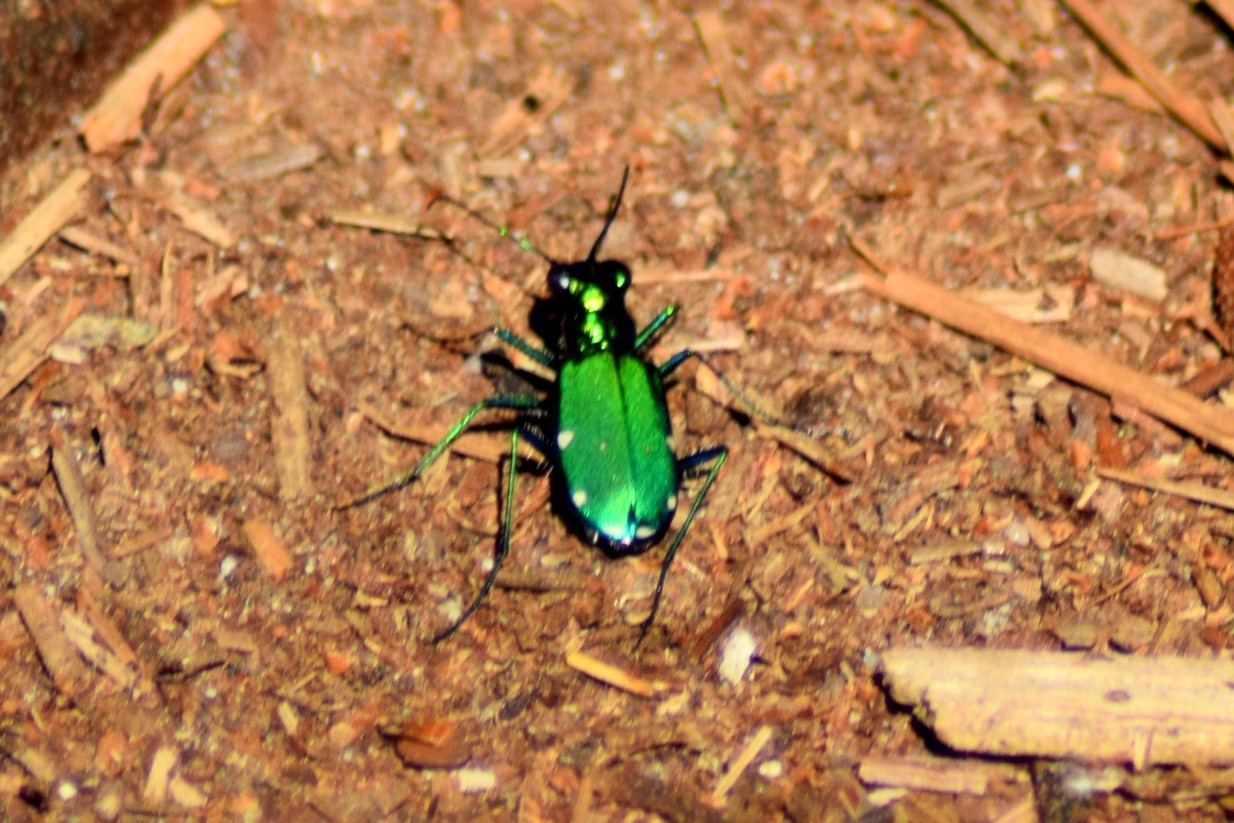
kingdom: Animalia
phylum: Arthropoda
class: Insecta
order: Coleoptera
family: Carabidae
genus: Cicindela
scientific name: Cicindela sexguttata
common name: Six-spotted tiger beetle
